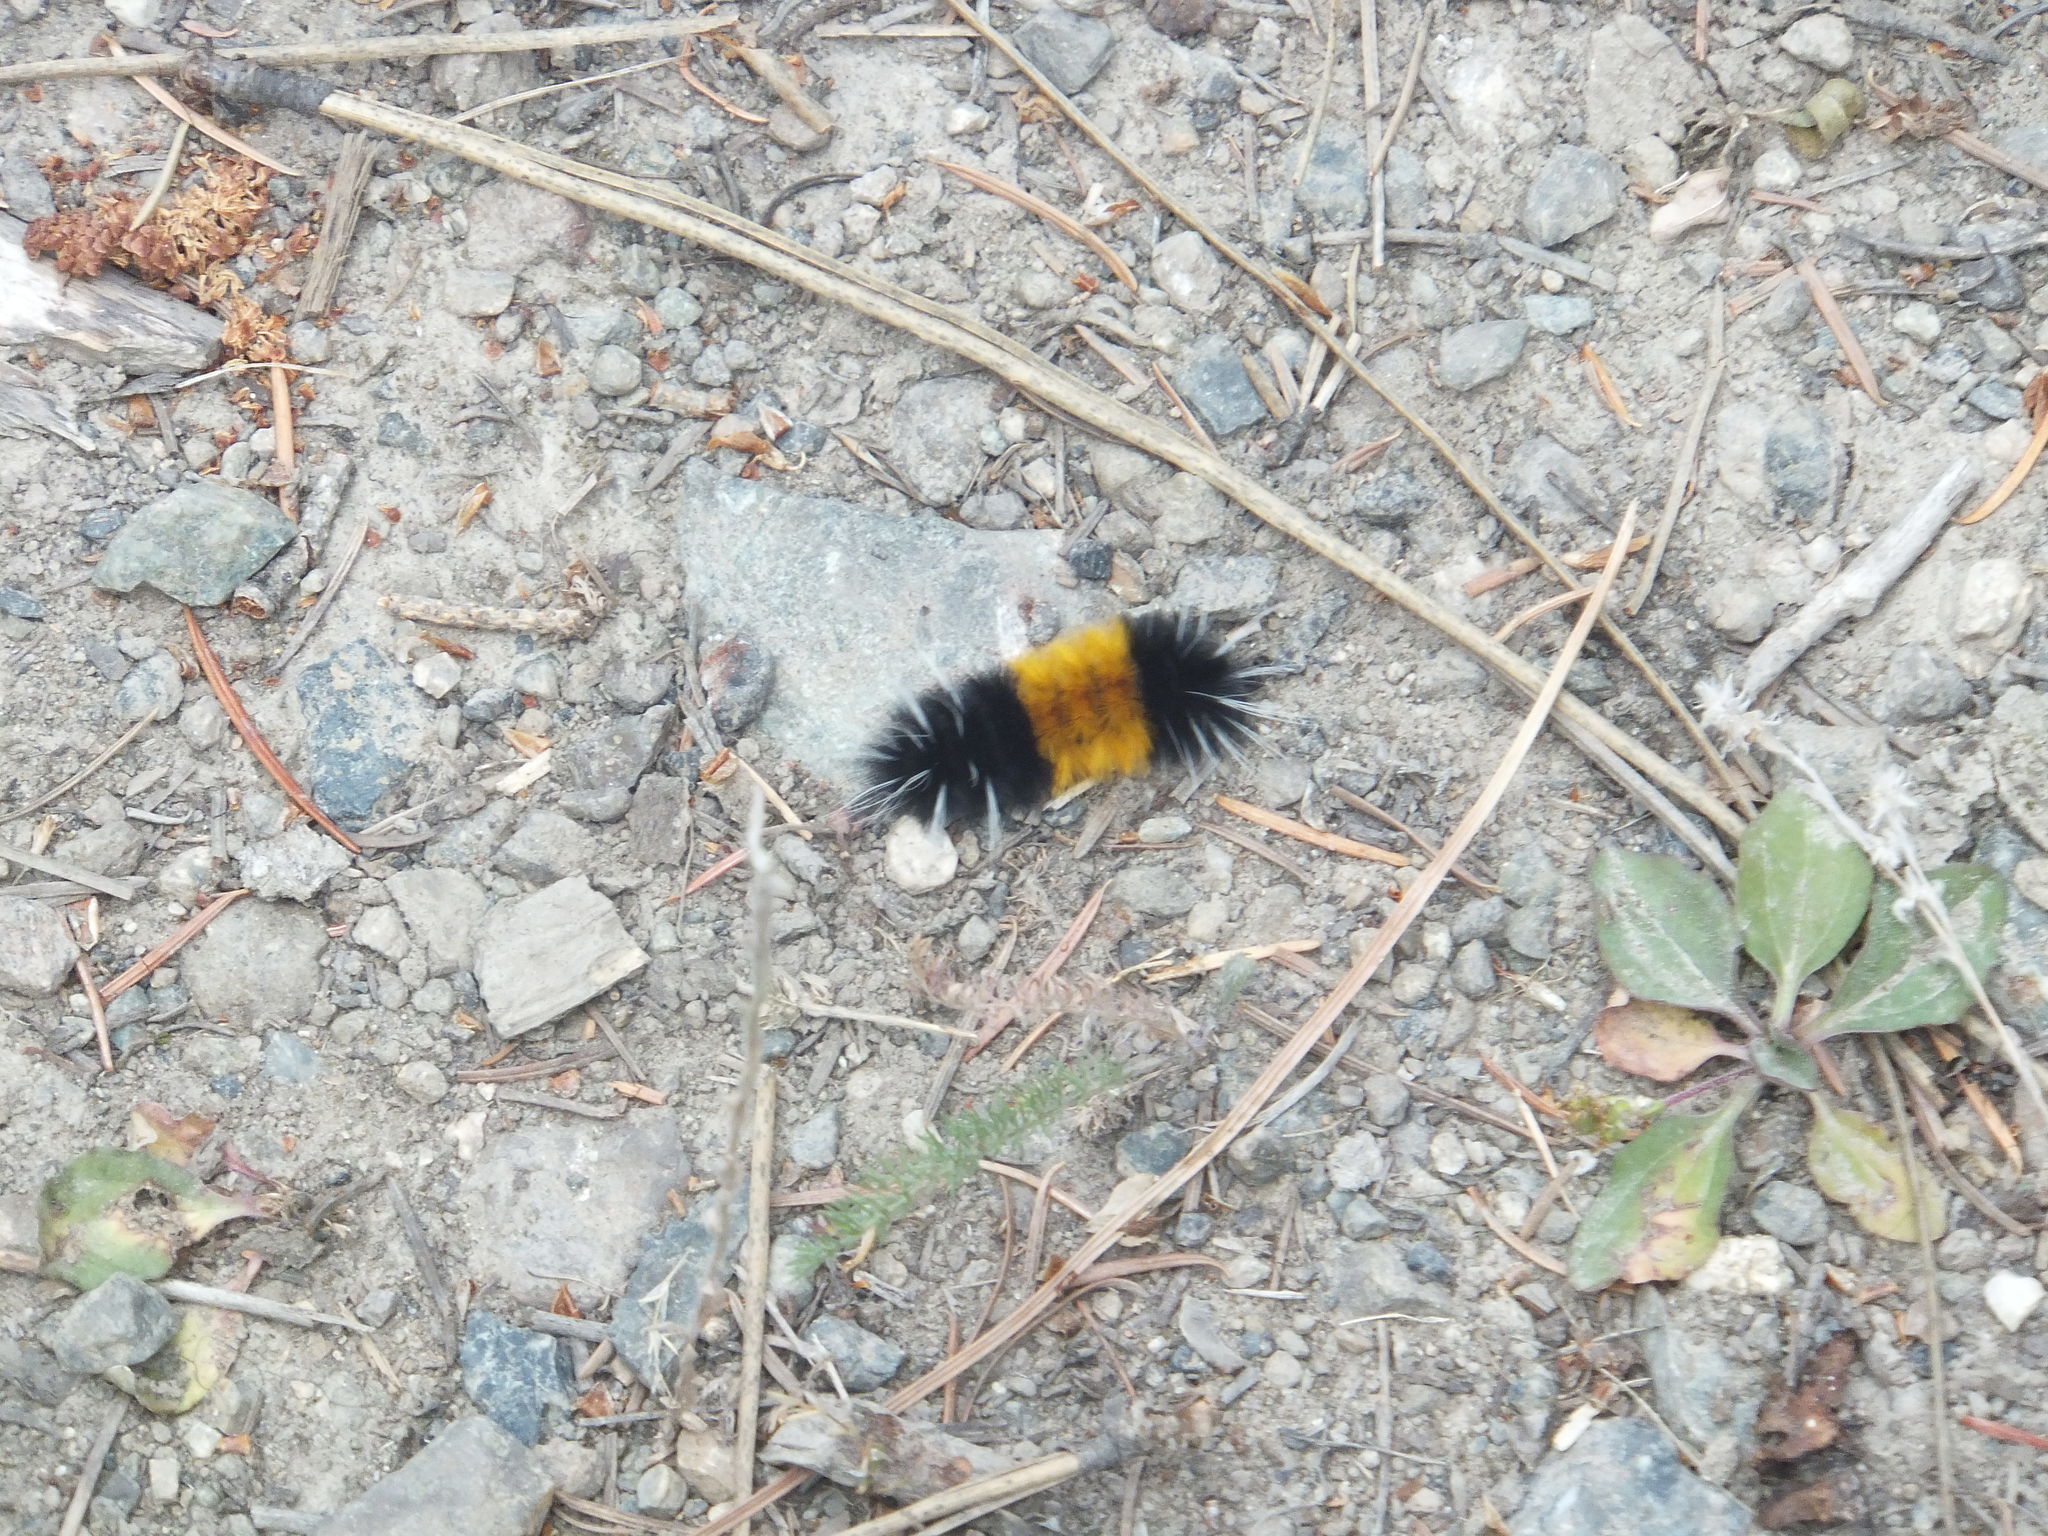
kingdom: Animalia
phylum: Arthropoda
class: Insecta
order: Lepidoptera
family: Erebidae
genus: Lophocampa
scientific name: Lophocampa maculata
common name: Spotted tussock moth
